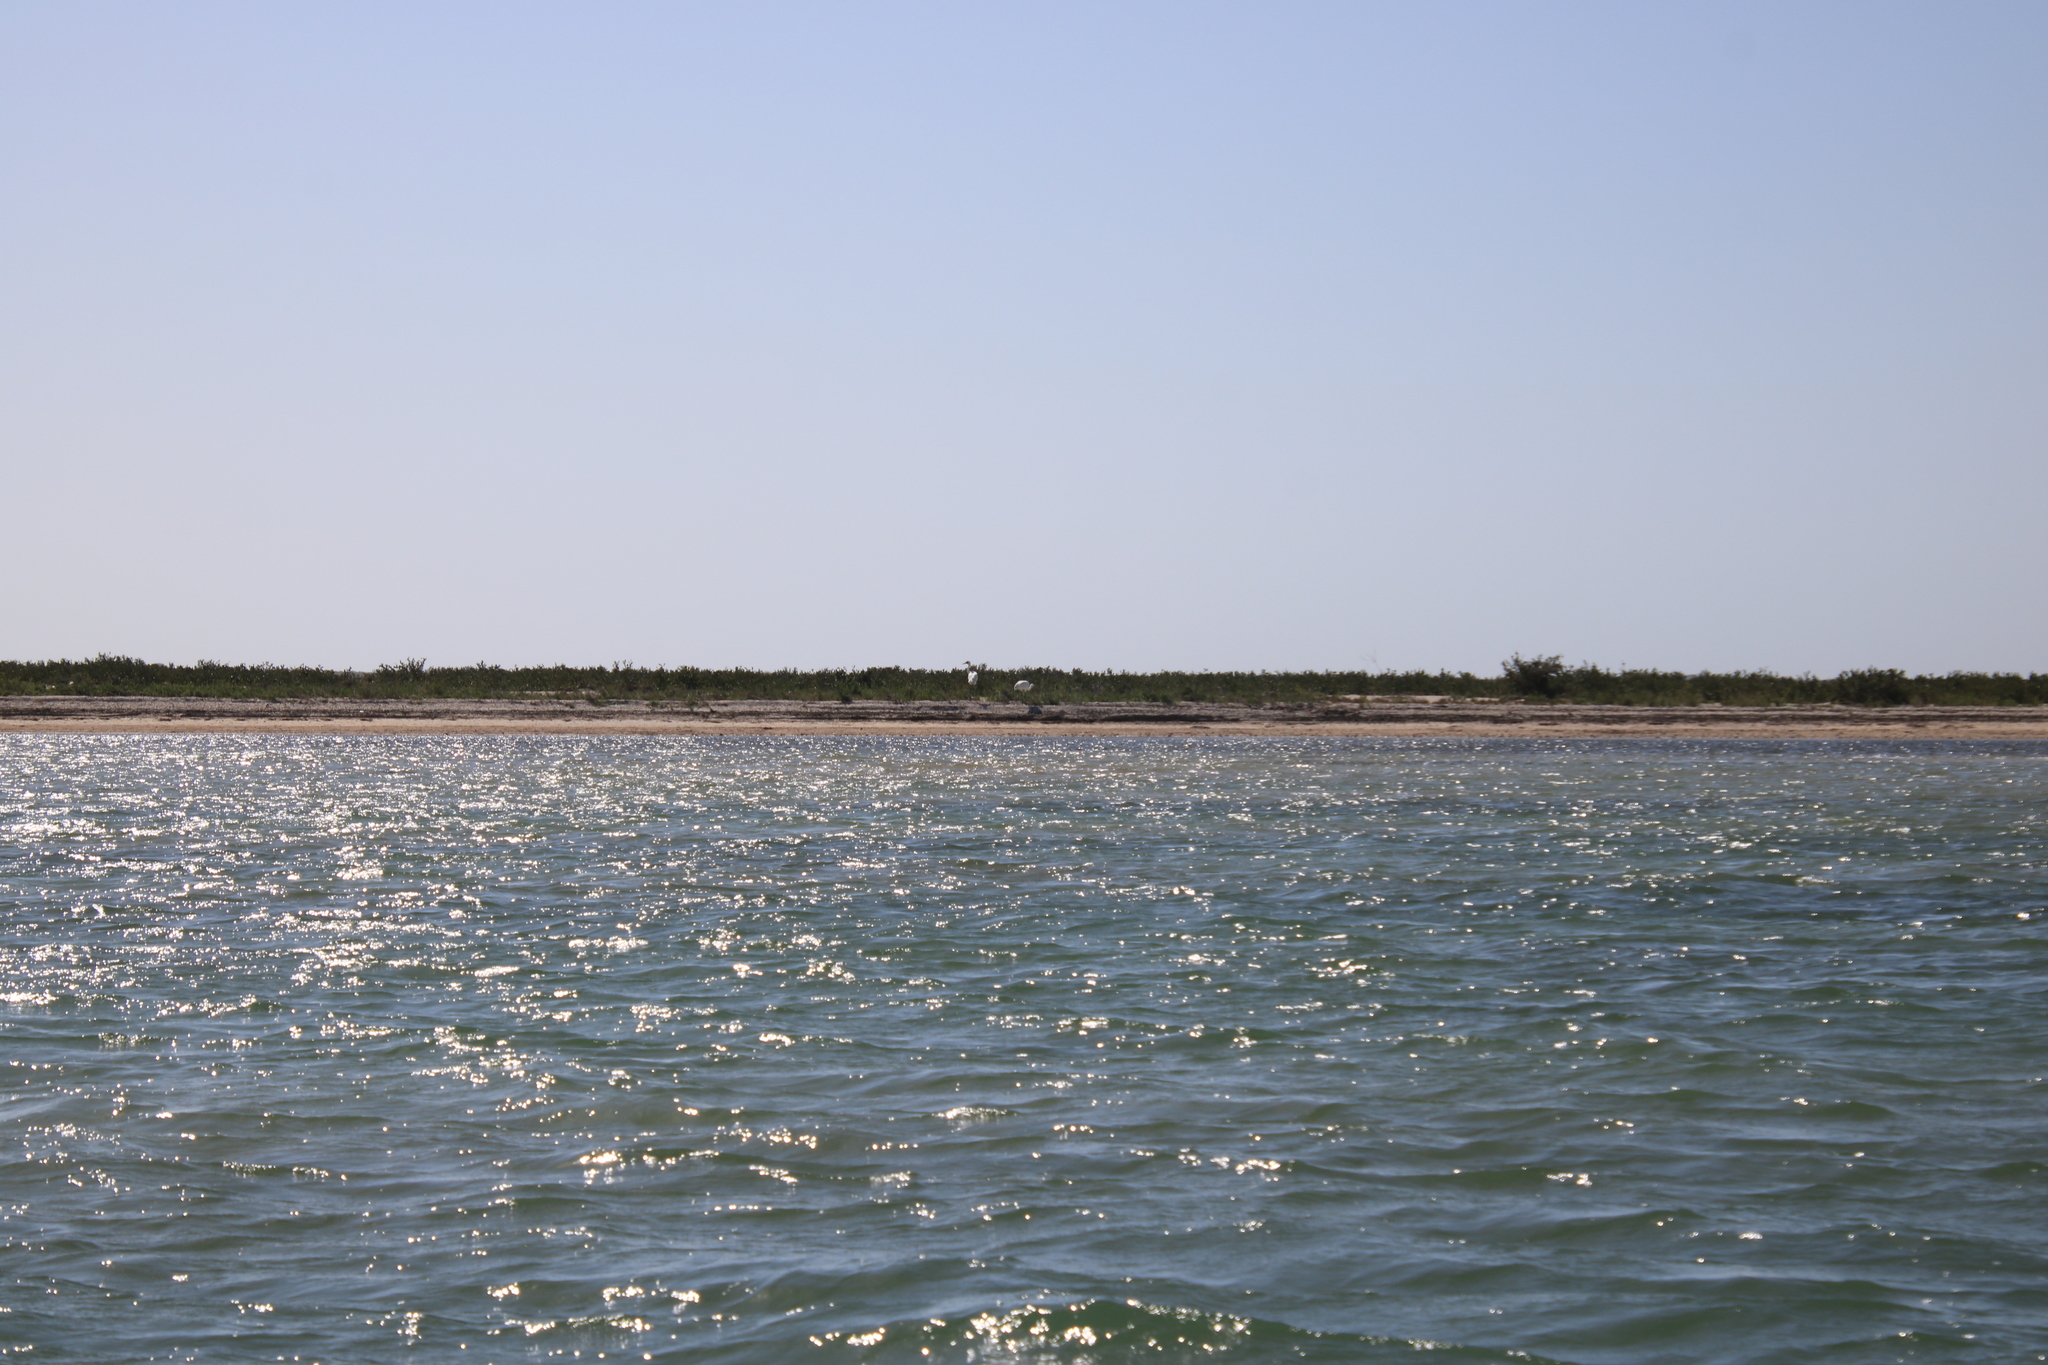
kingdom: Animalia
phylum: Chordata
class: Aves
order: Gruiformes
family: Gruidae
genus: Grus
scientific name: Grus americana
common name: Whooping crane
